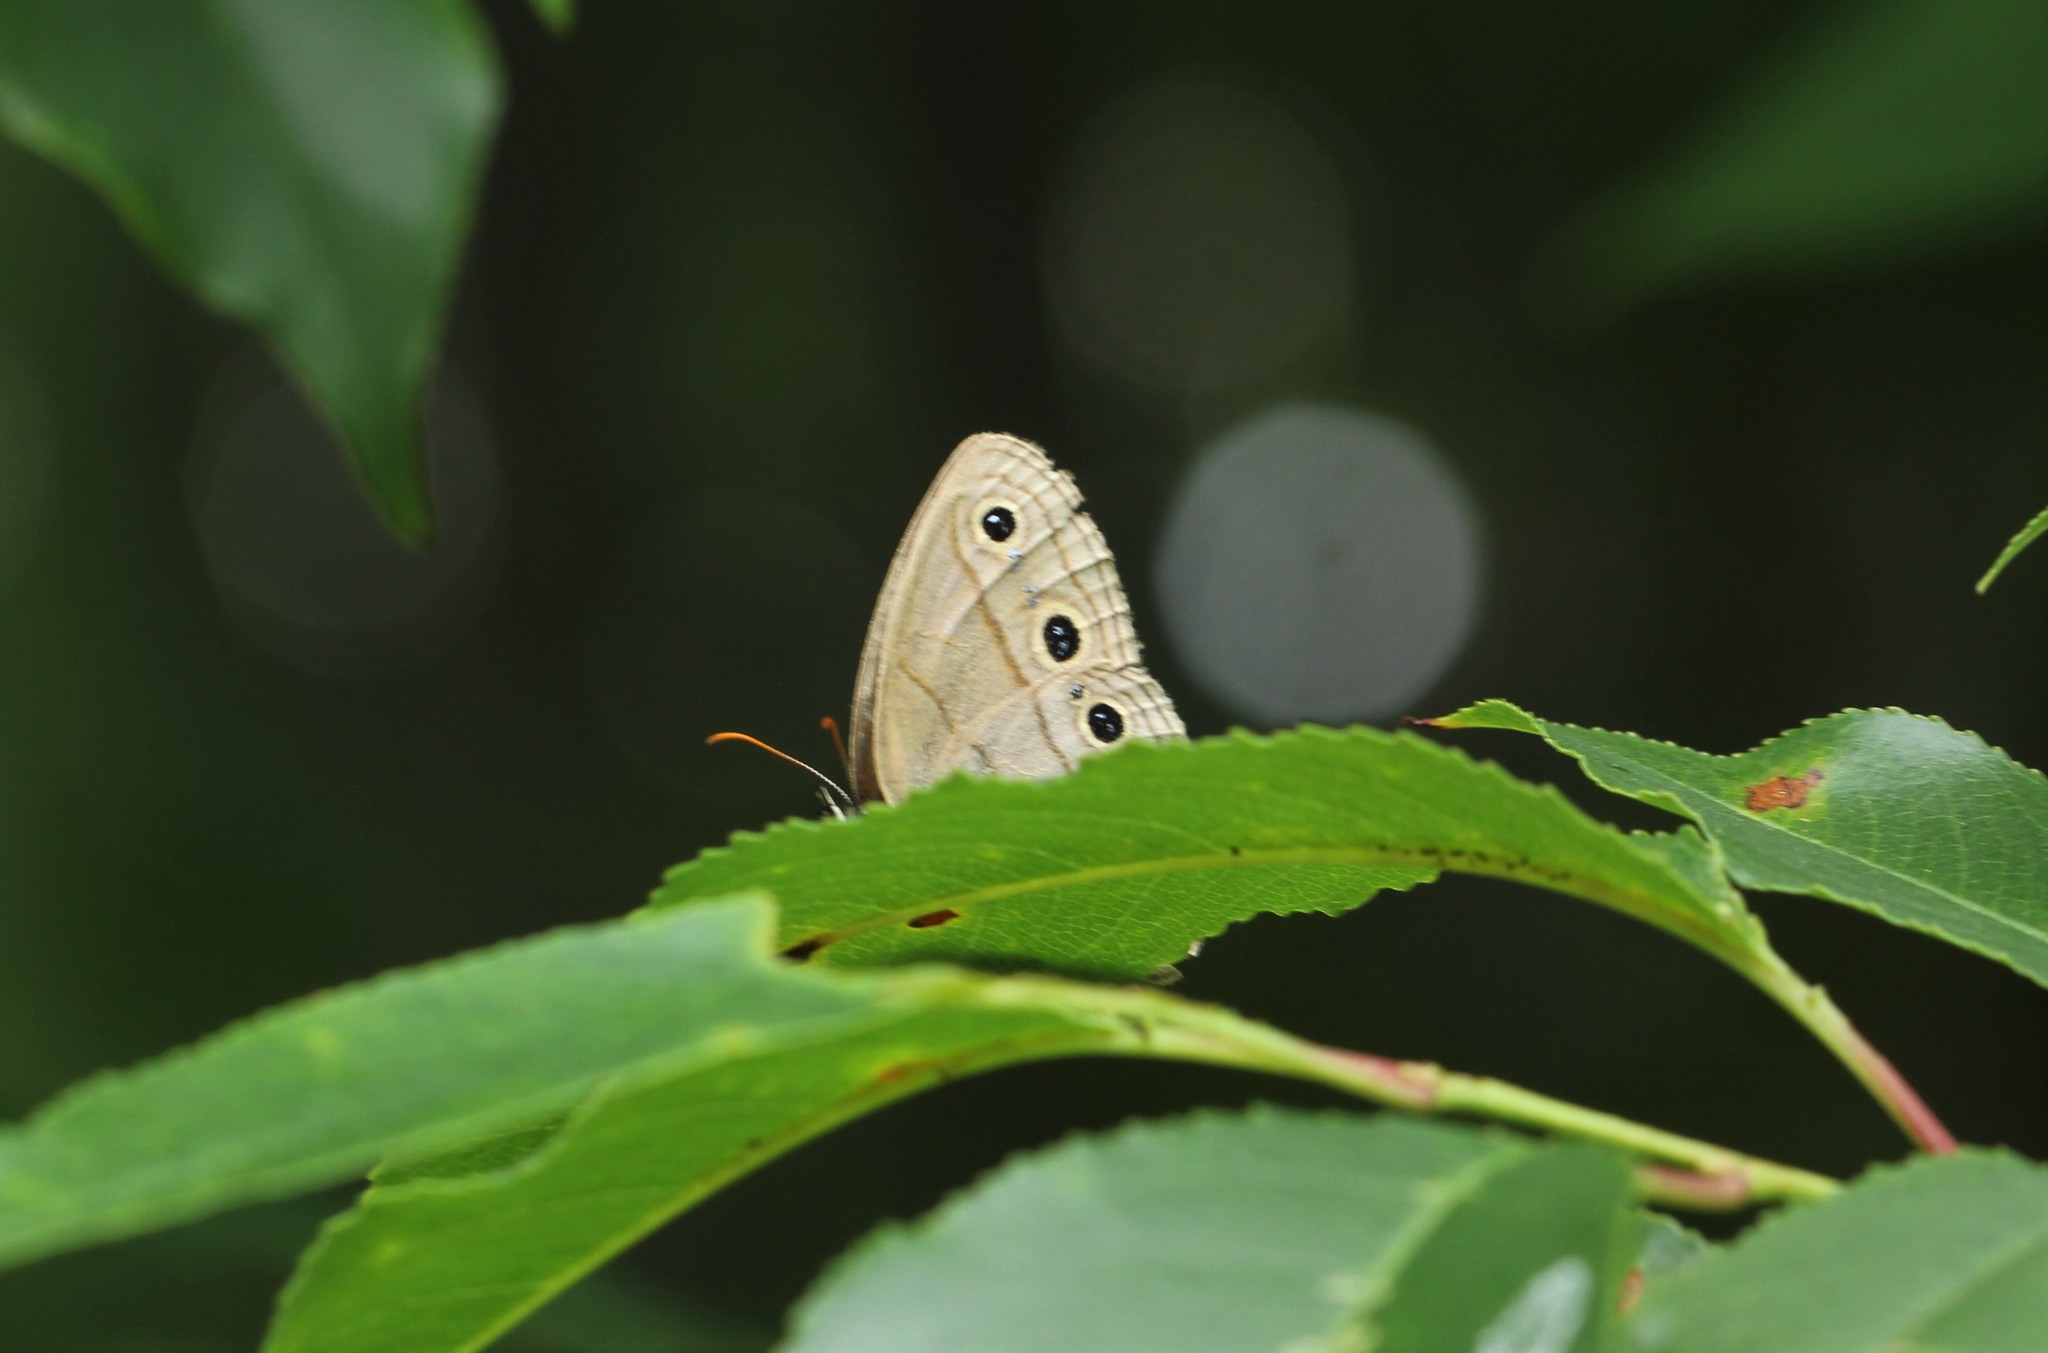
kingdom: Animalia
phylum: Arthropoda
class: Insecta
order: Lepidoptera
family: Nymphalidae
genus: Euptychia
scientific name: Euptychia cymela
